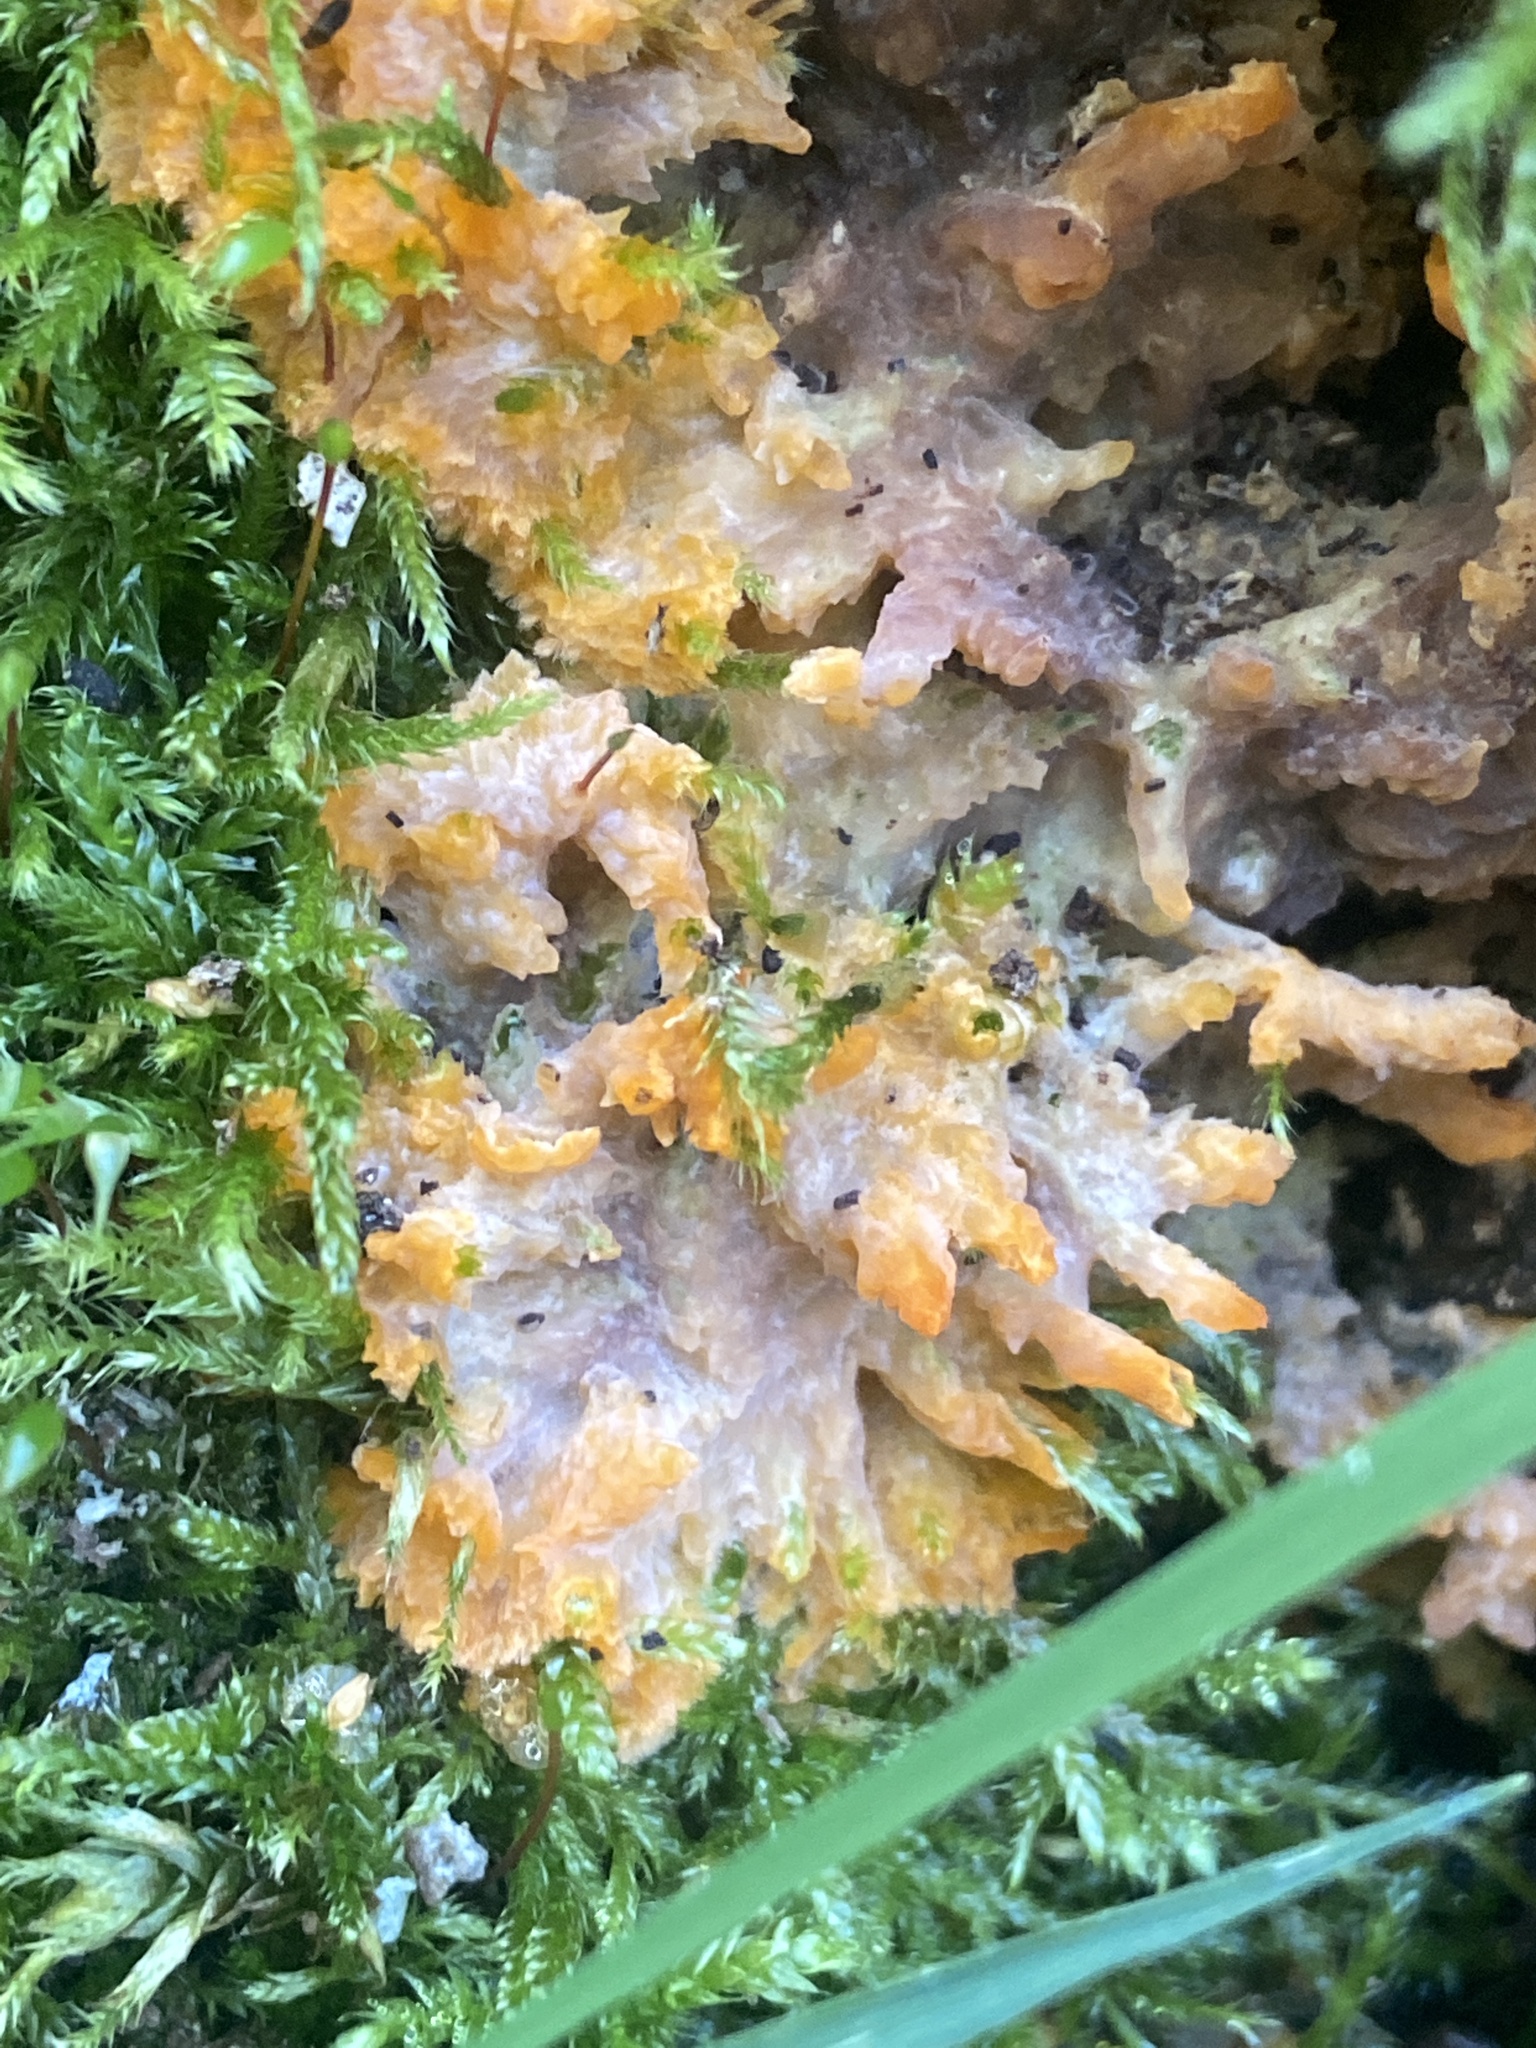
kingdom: Fungi
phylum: Basidiomycota
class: Agaricomycetes
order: Polyporales
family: Meruliaceae
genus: Phlebia
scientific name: Phlebia radiata
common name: Wrinkled crust
